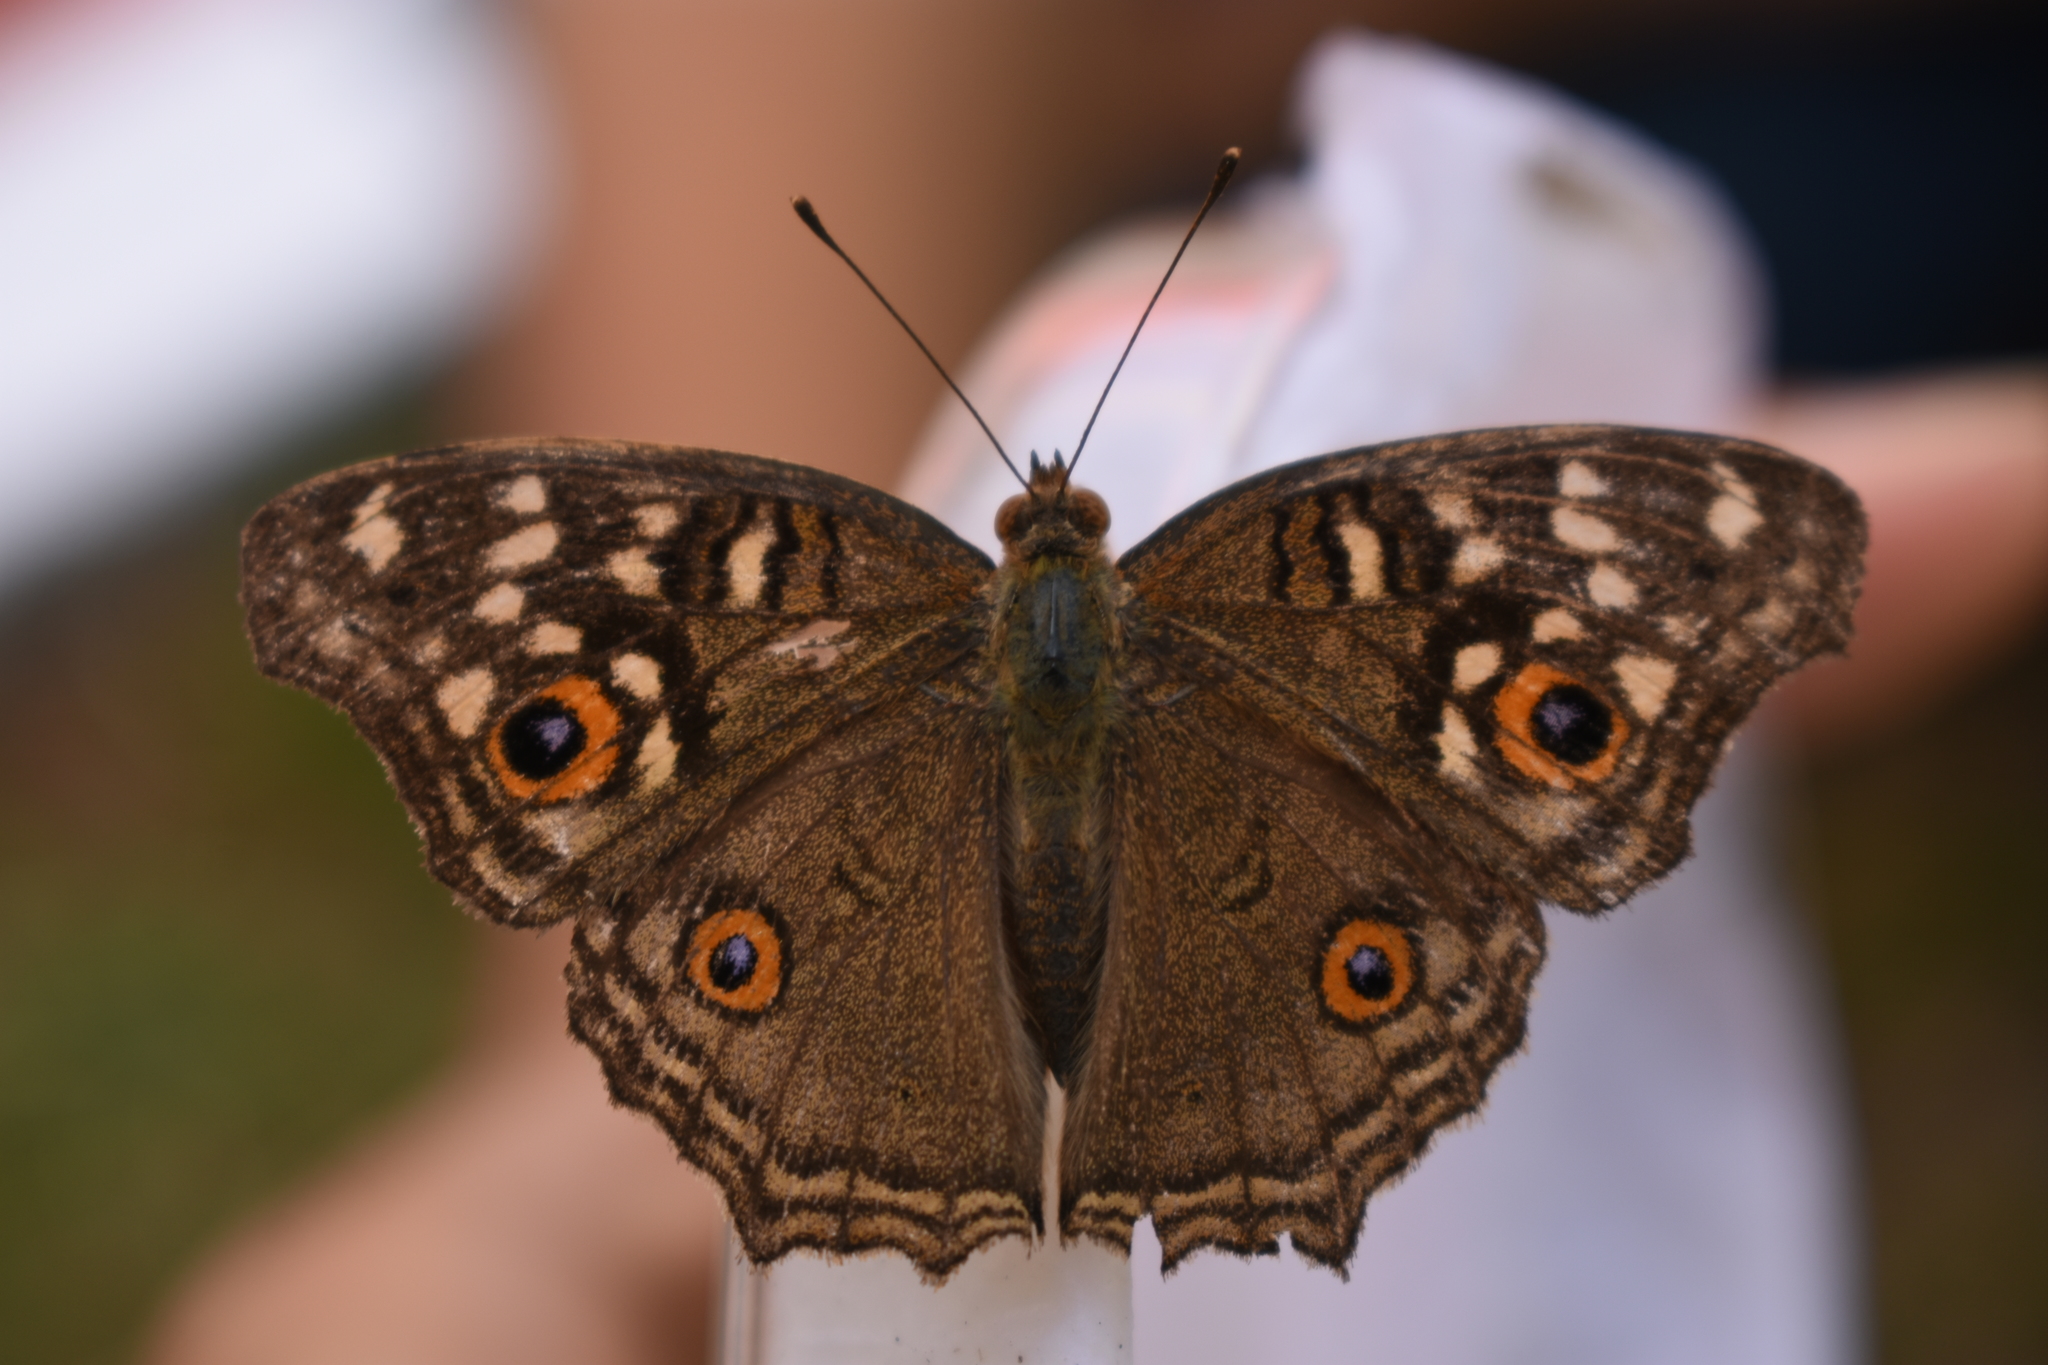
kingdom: Animalia
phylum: Arthropoda
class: Insecta
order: Lepidoptera
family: Nymphalidae
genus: Junonia
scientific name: Junonia lemonias
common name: Lemon pansy
